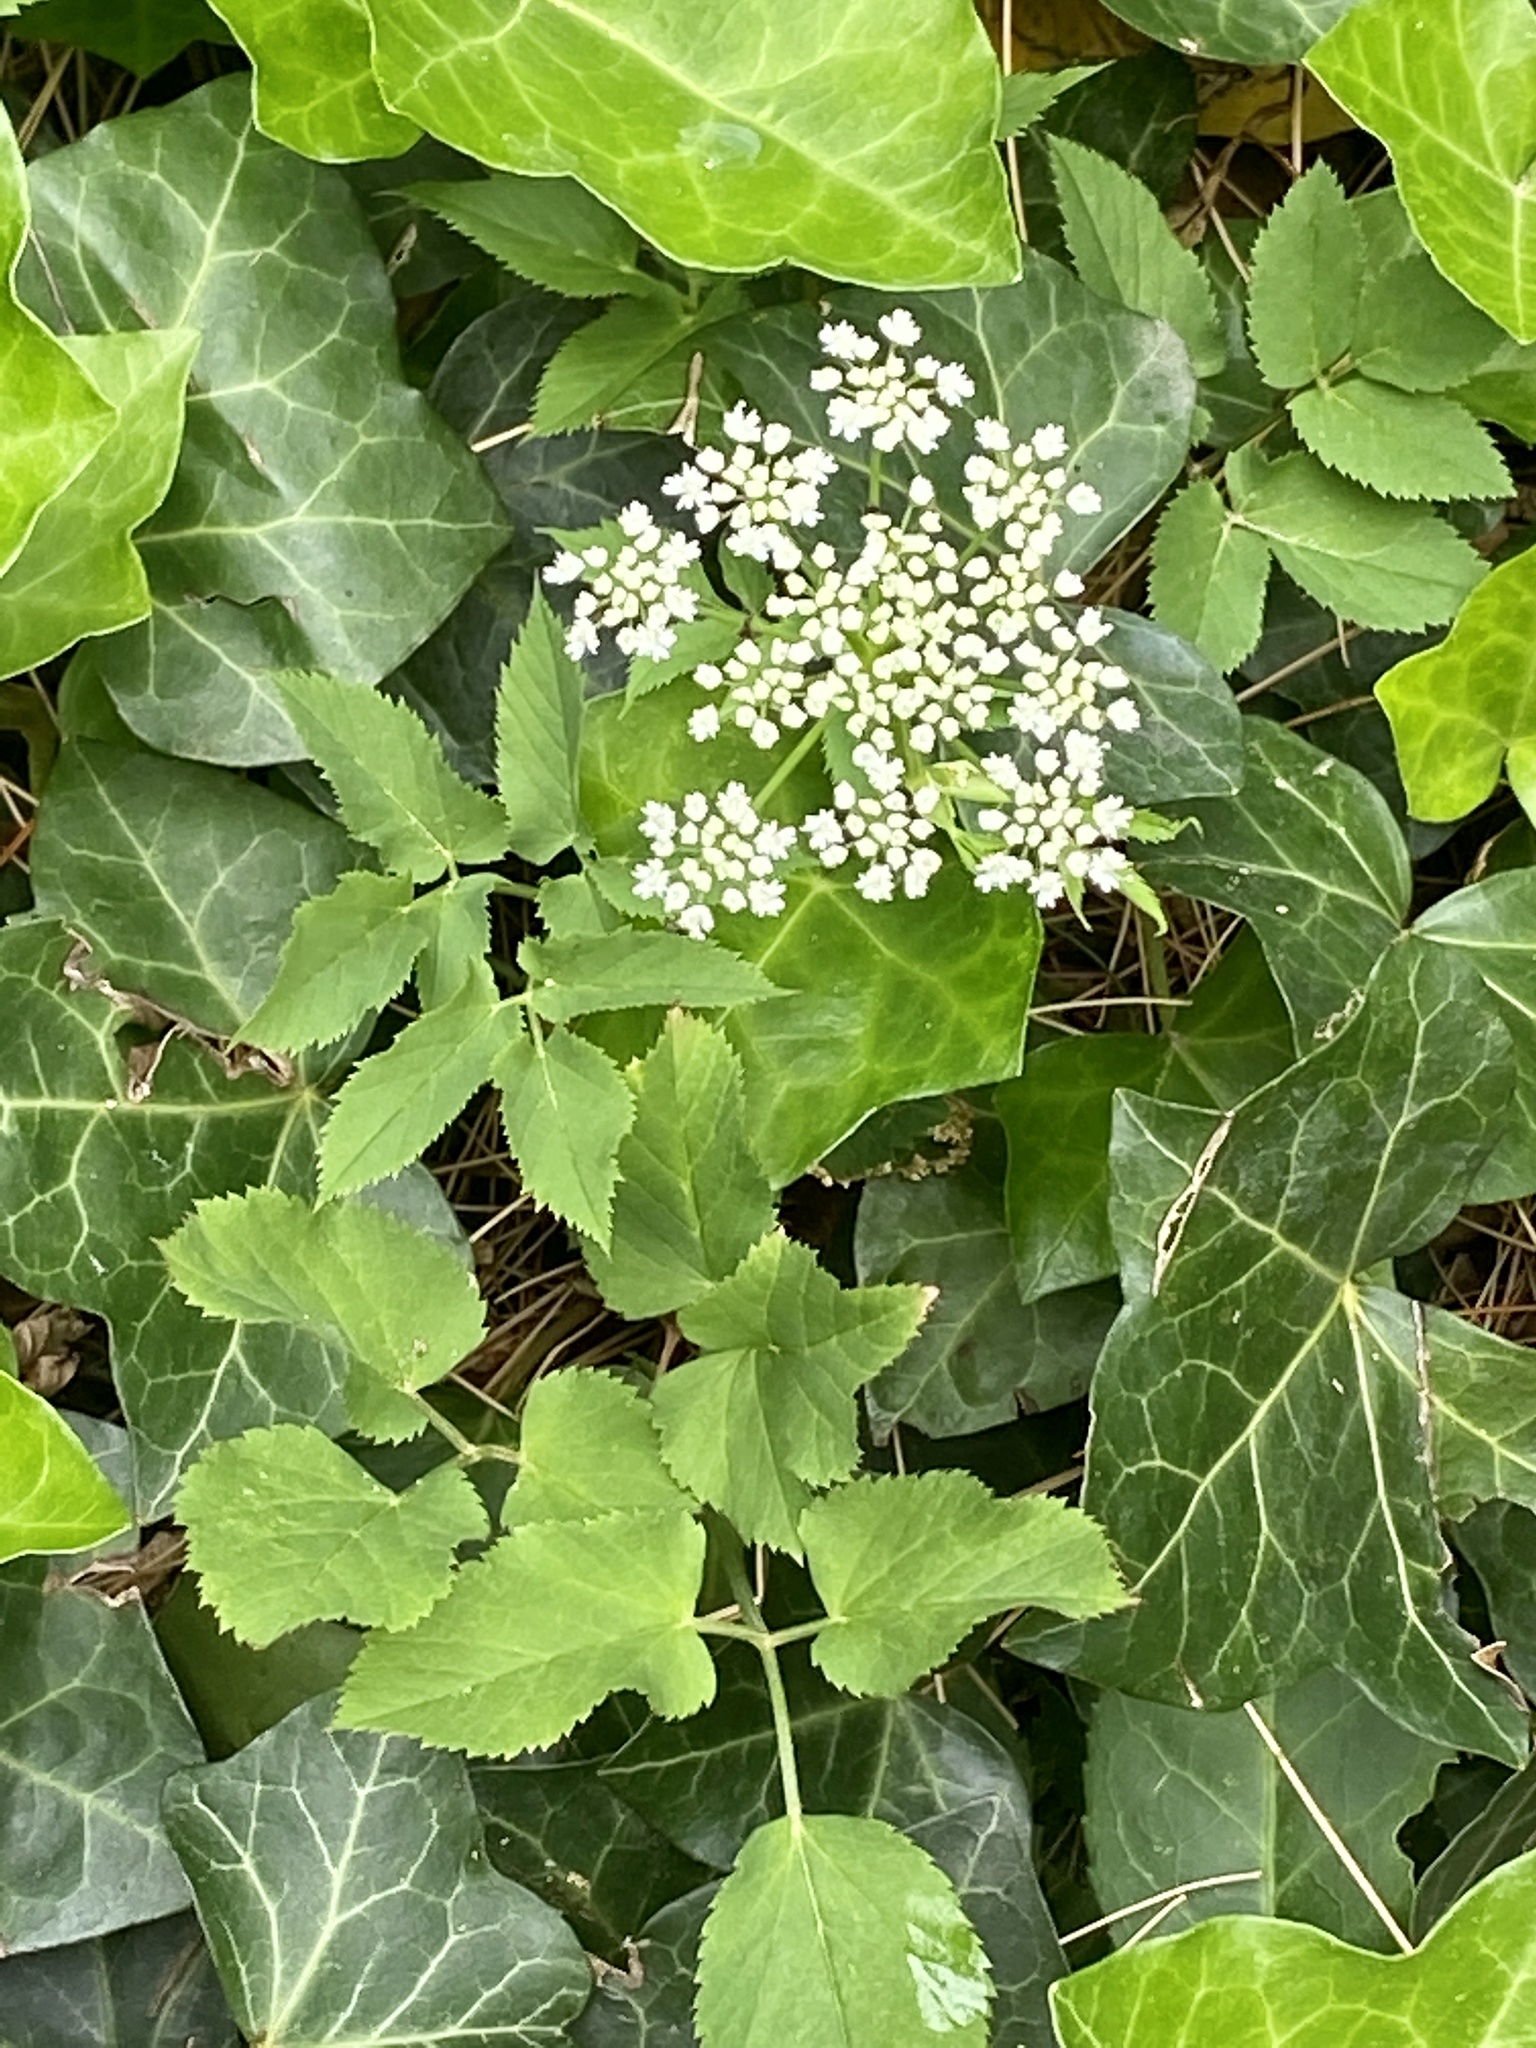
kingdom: Plantae
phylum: Tracheophyta
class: Magnoliopsida
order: Apiales
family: Apiaceae
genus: Aegopodium
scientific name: Aegopodium podagraria
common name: Ground-elder
